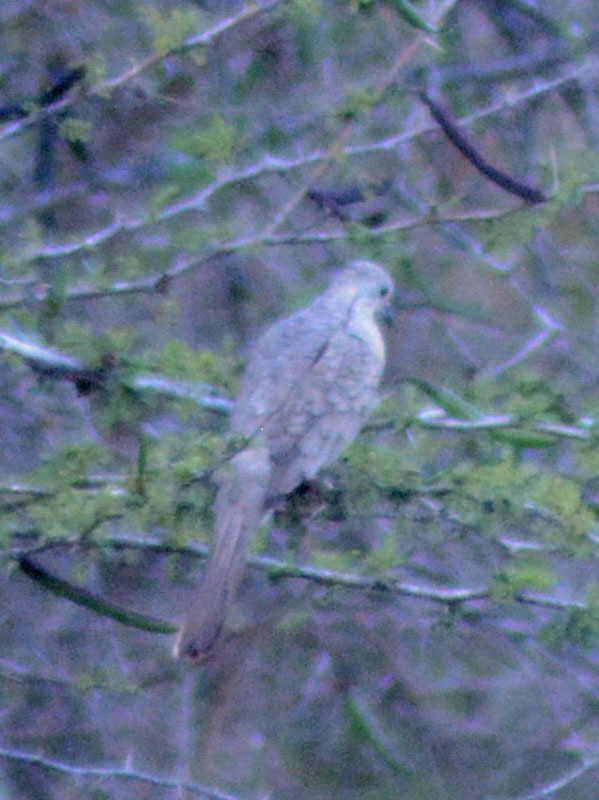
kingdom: Animalia
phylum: Chordata
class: Aves
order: Columbiformes
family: Columbidae
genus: Columbina
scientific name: Columbina inca
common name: Inca dove
